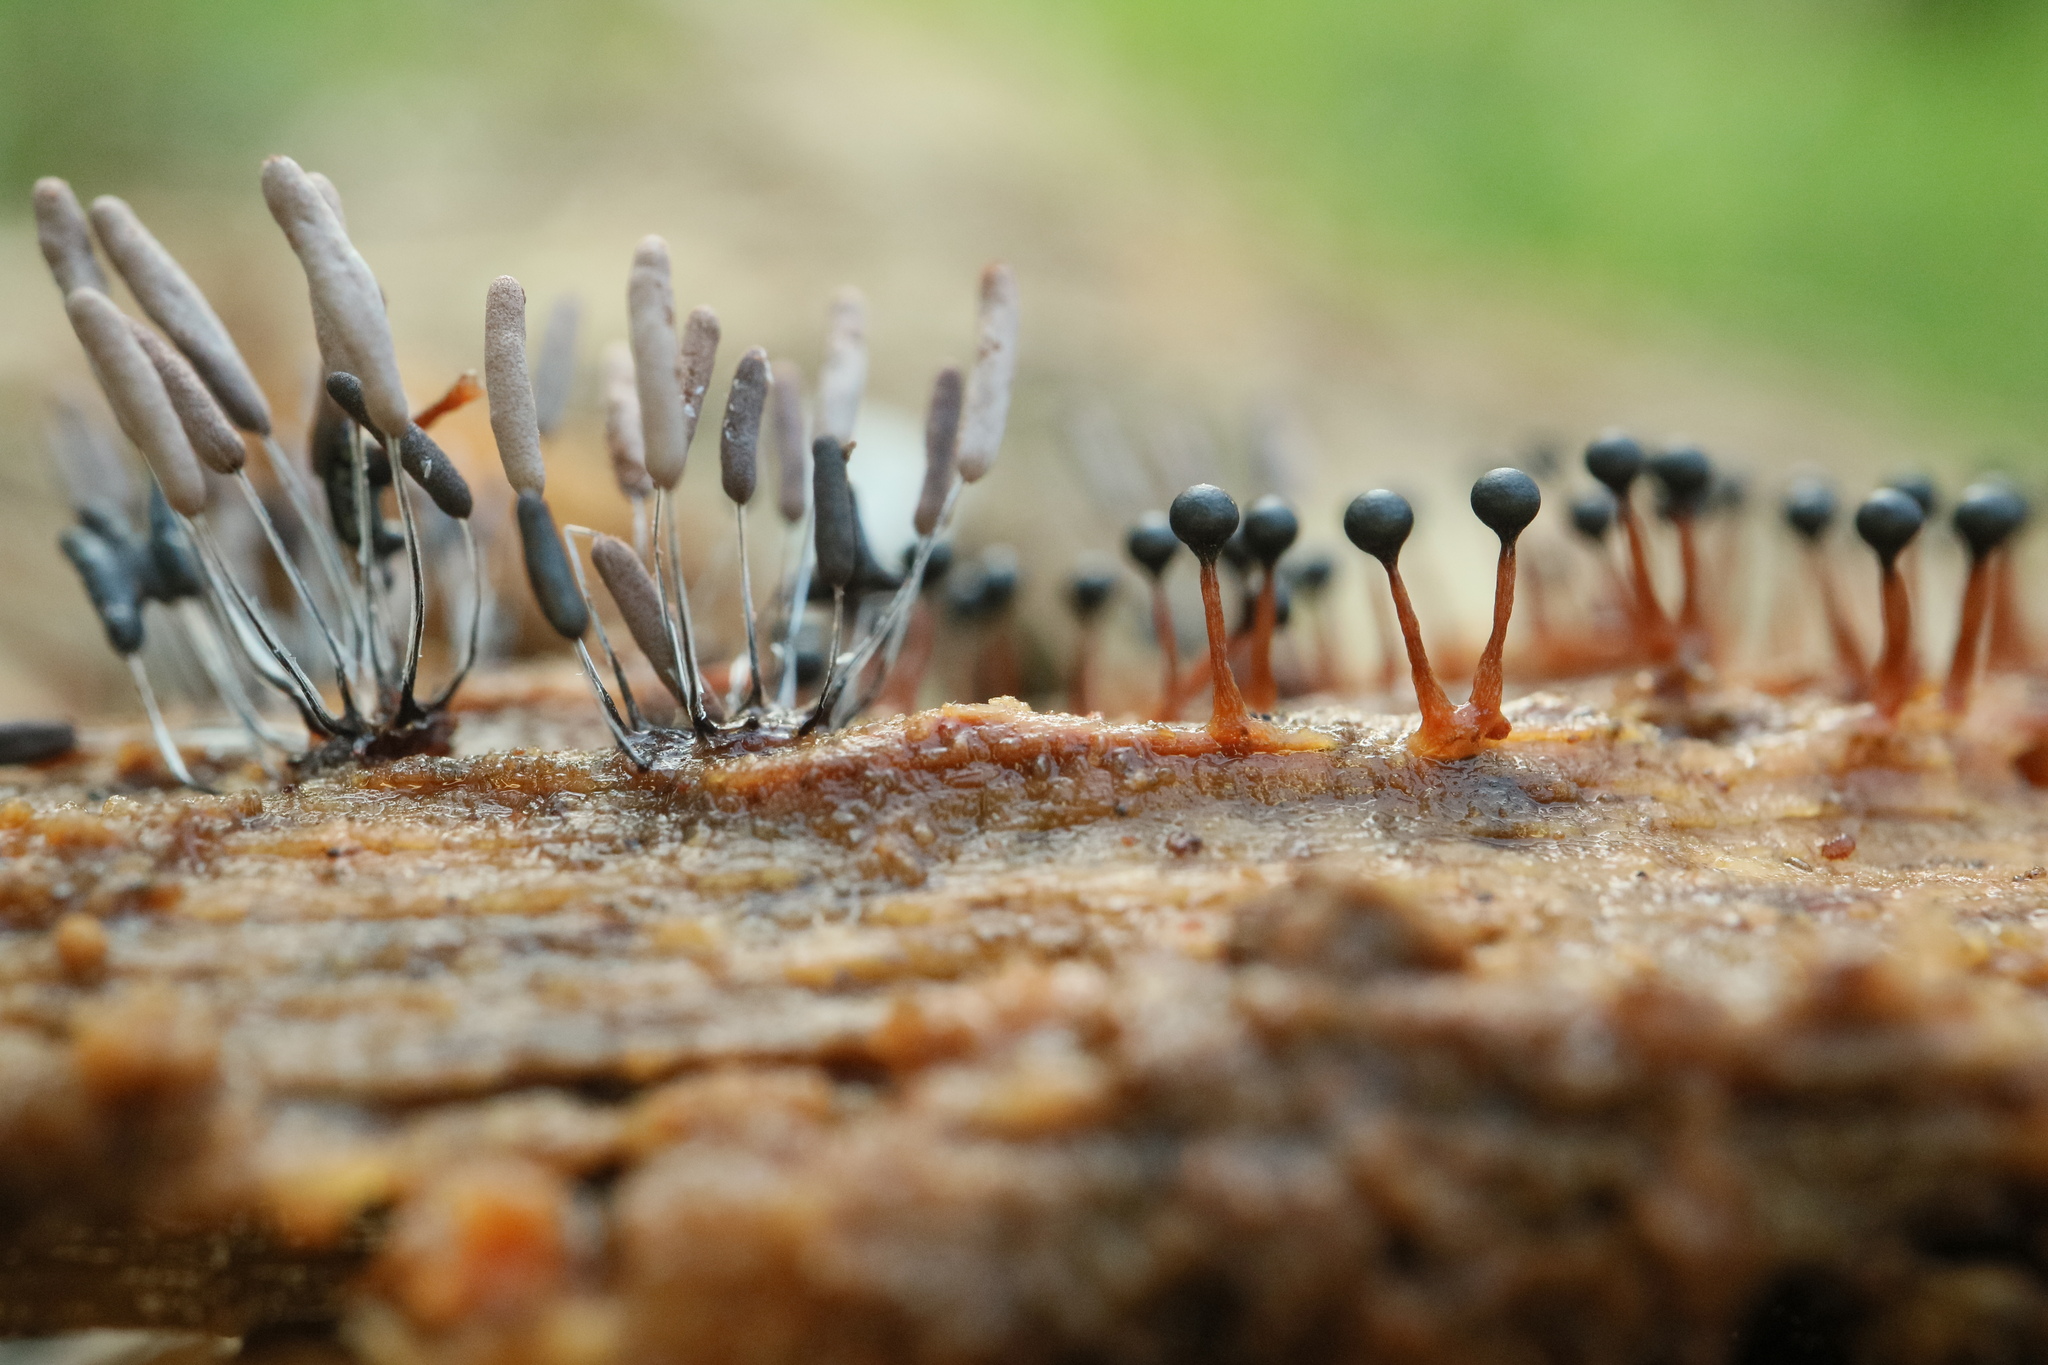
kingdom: Protozoa
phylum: Mycetozoa
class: Myxomycetes
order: Trichiales
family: Trichiaceae
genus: Metatrichia
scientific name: Metatrichia floriformis
